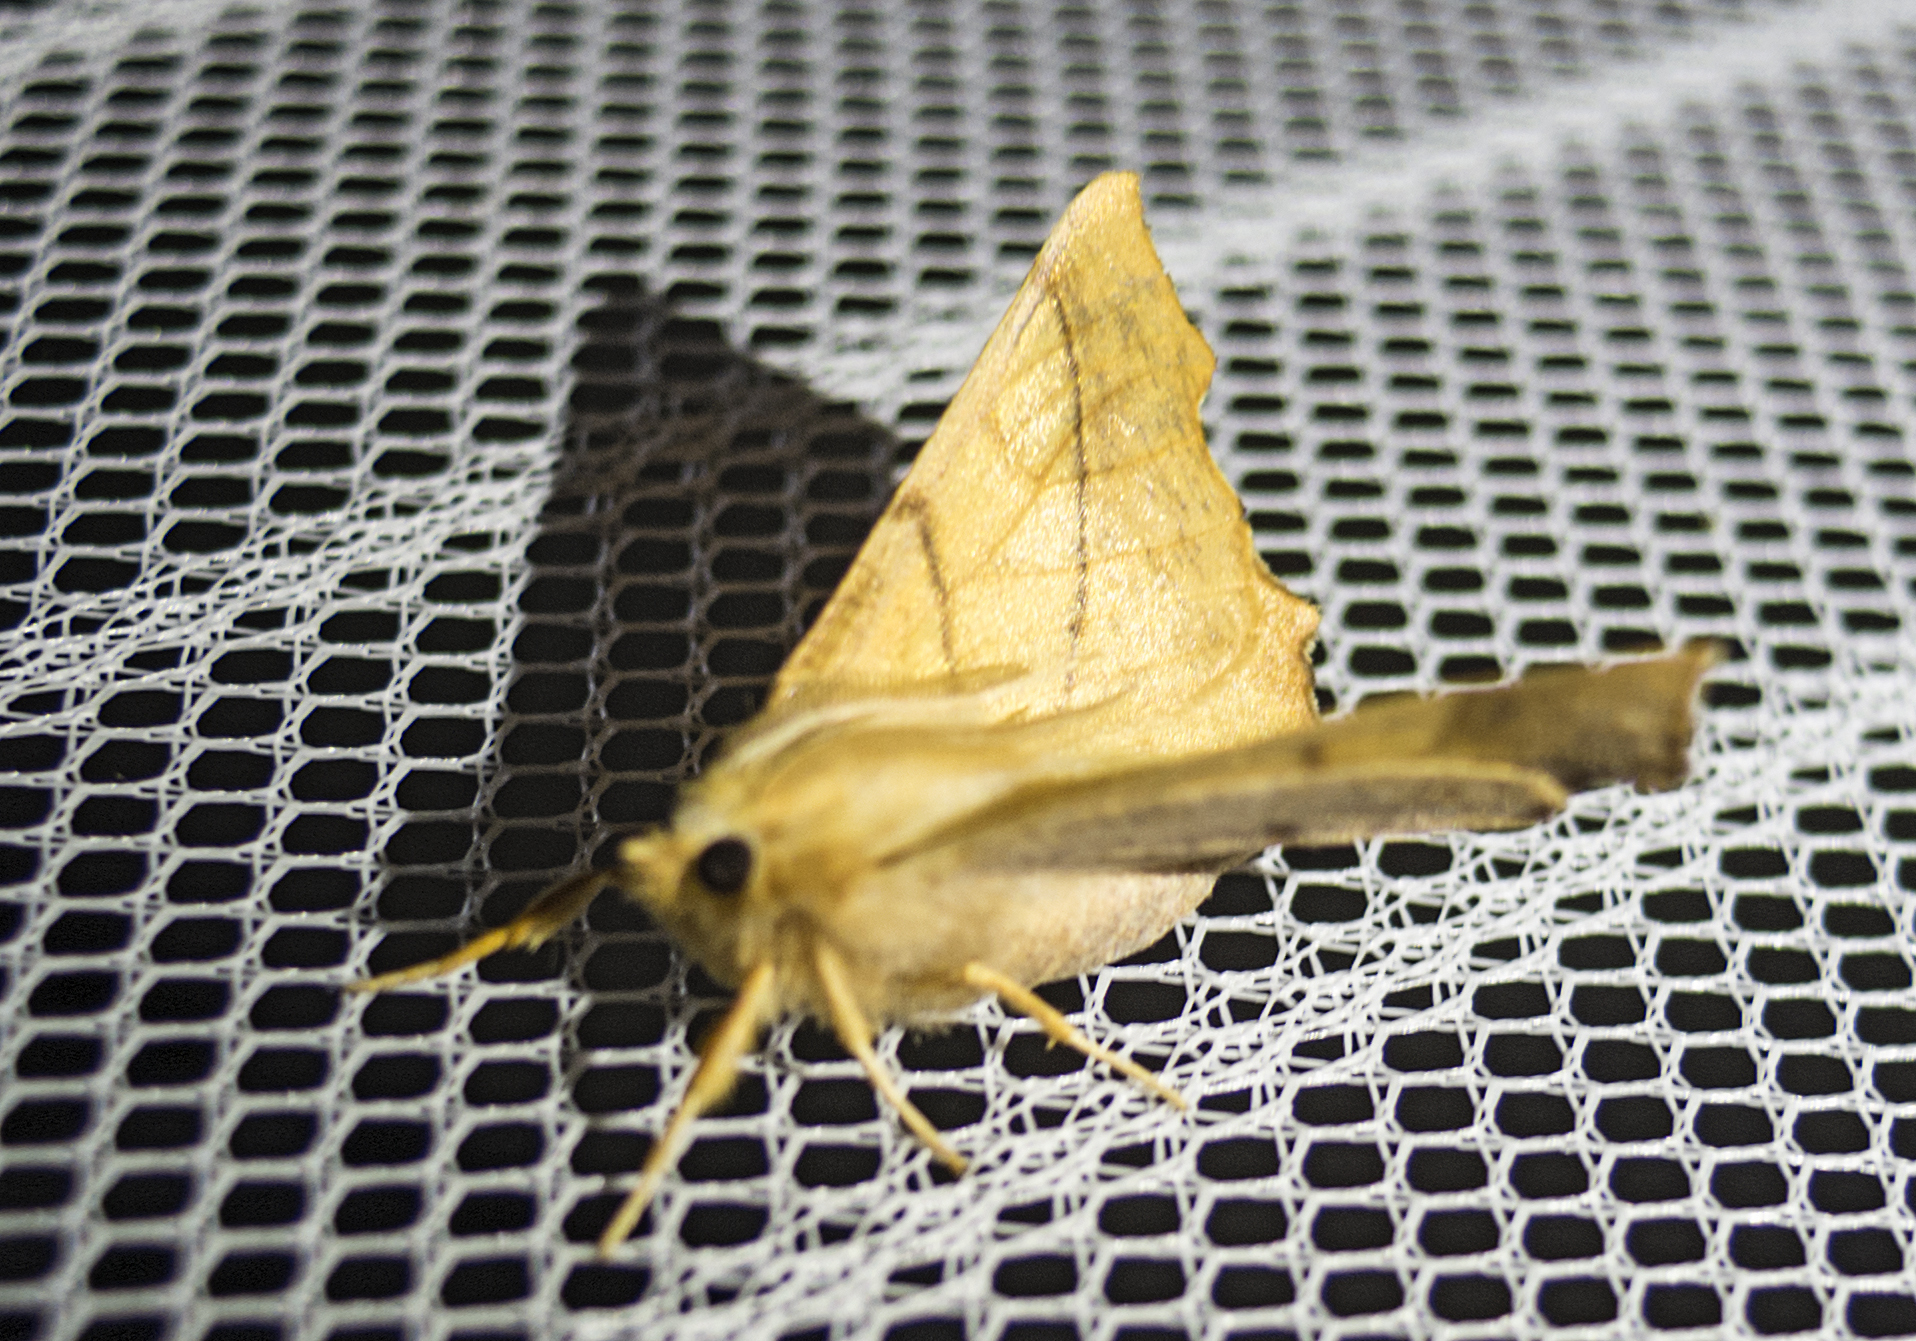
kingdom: Animalia
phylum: Arthropoda
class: Insecta
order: Lepidoptera
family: Geometridae
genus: Ennomos
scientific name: Ennomos fuscantaria
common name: Dusky thorn
